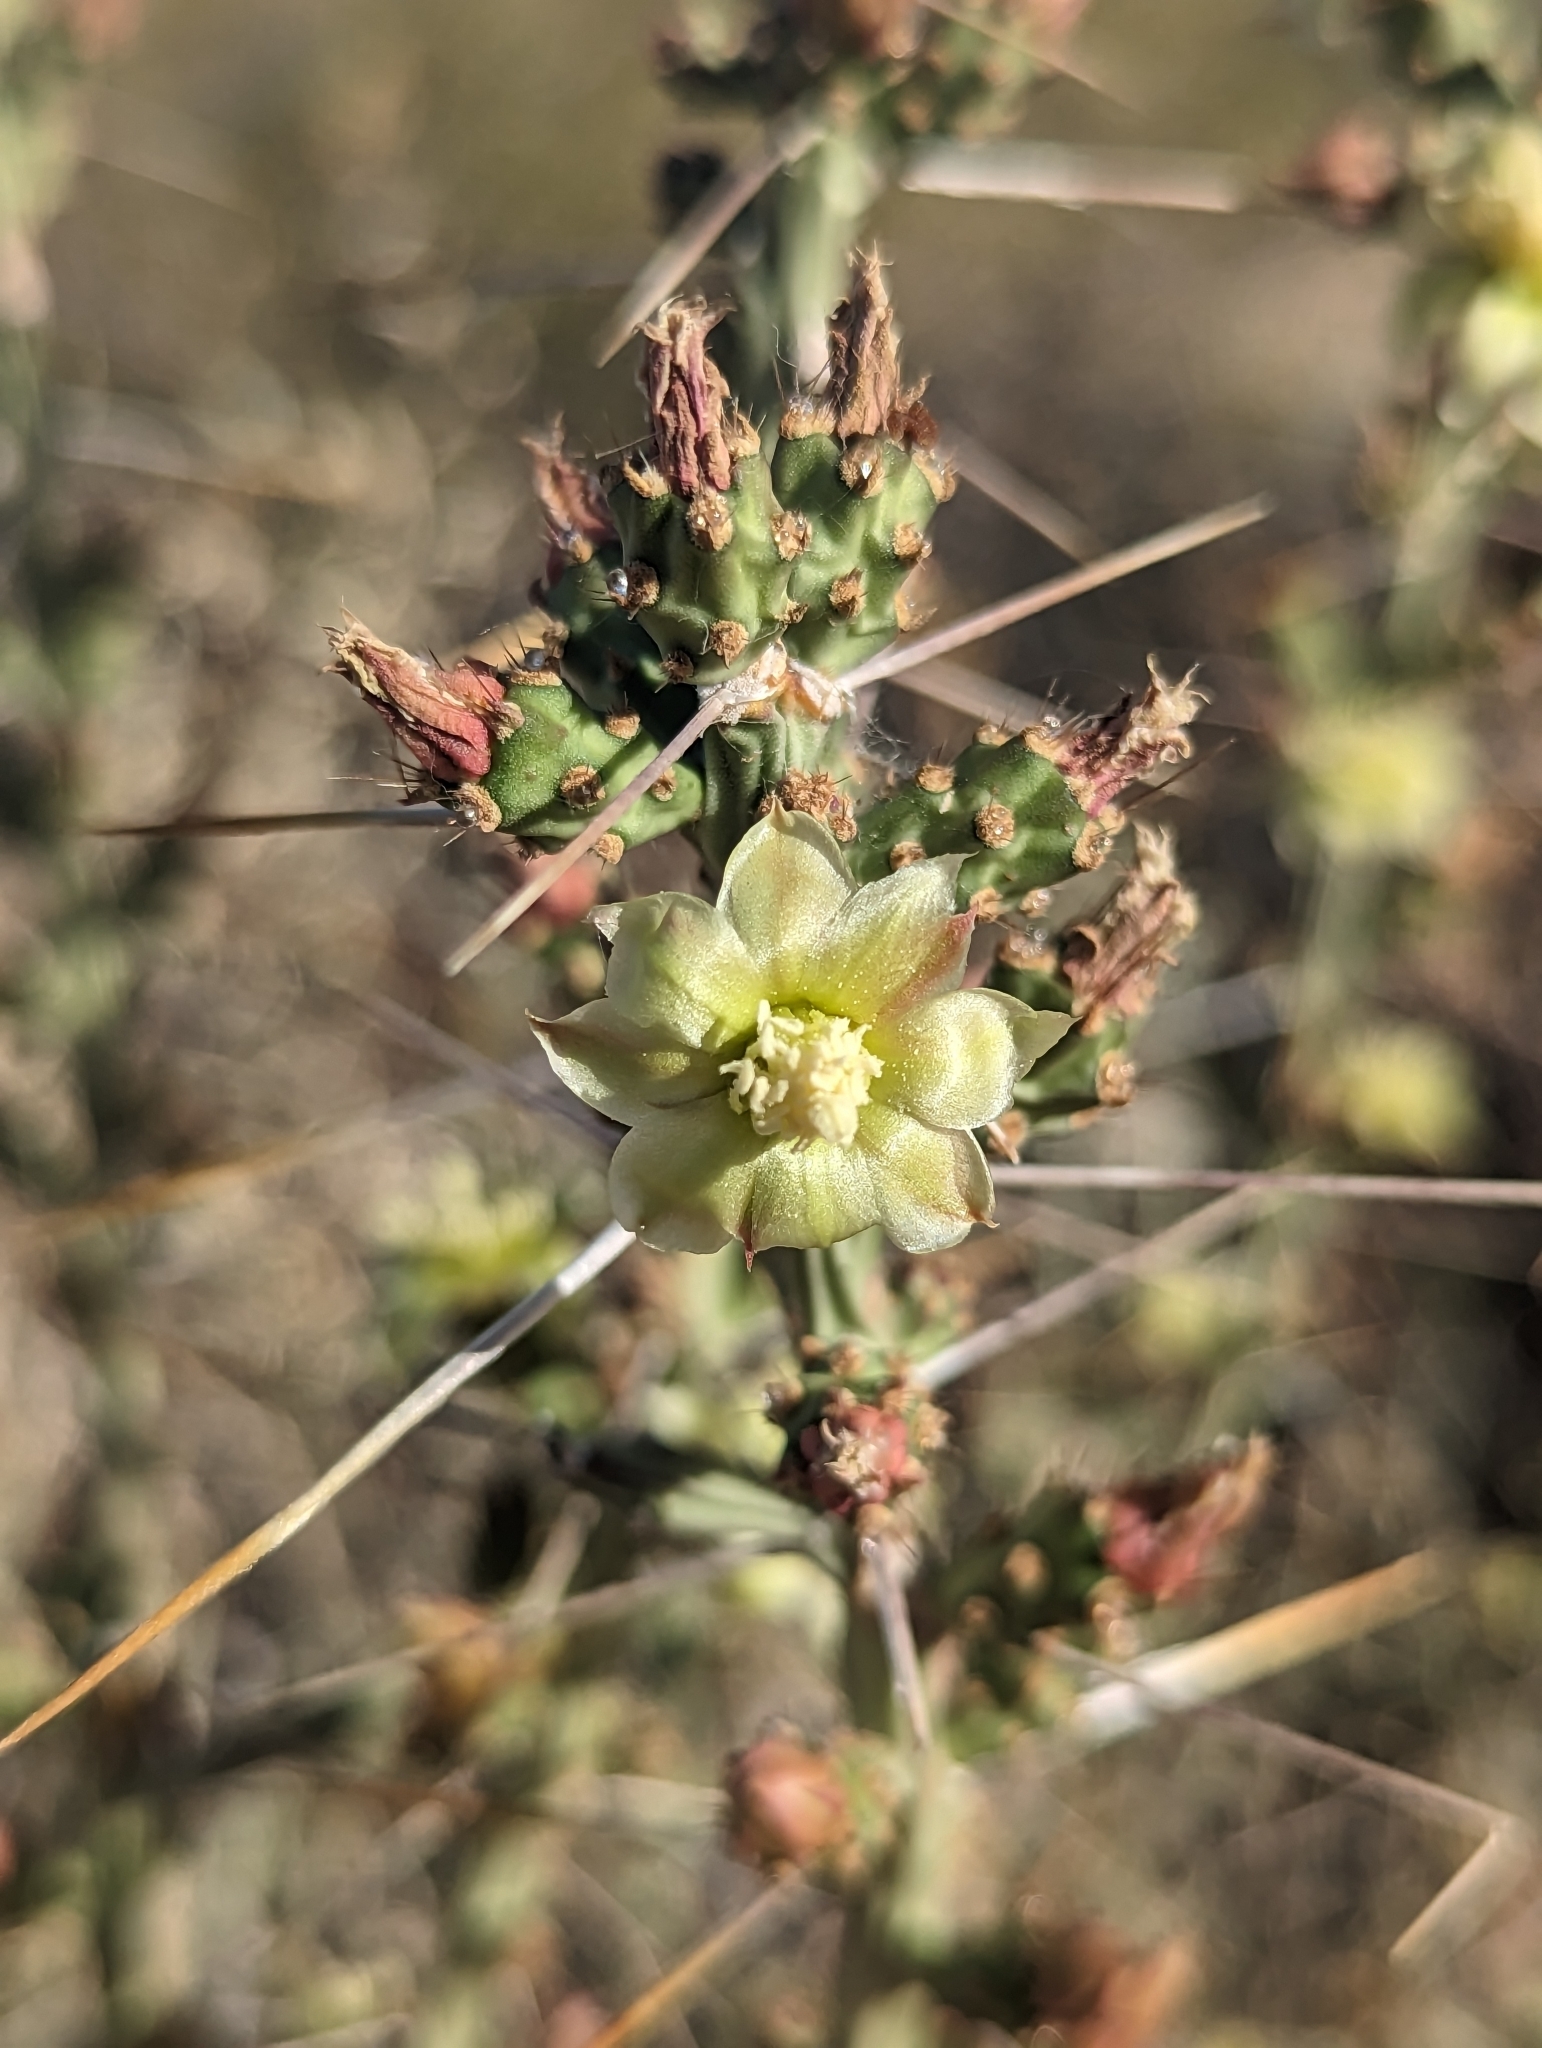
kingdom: Plantae
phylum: Tracheophyta
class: Magnoliopsida
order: Caryophyllales
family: Cactaceae
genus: Cylindropuntia
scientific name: Cylindropuntia leptocaulis
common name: Christmas cactus
